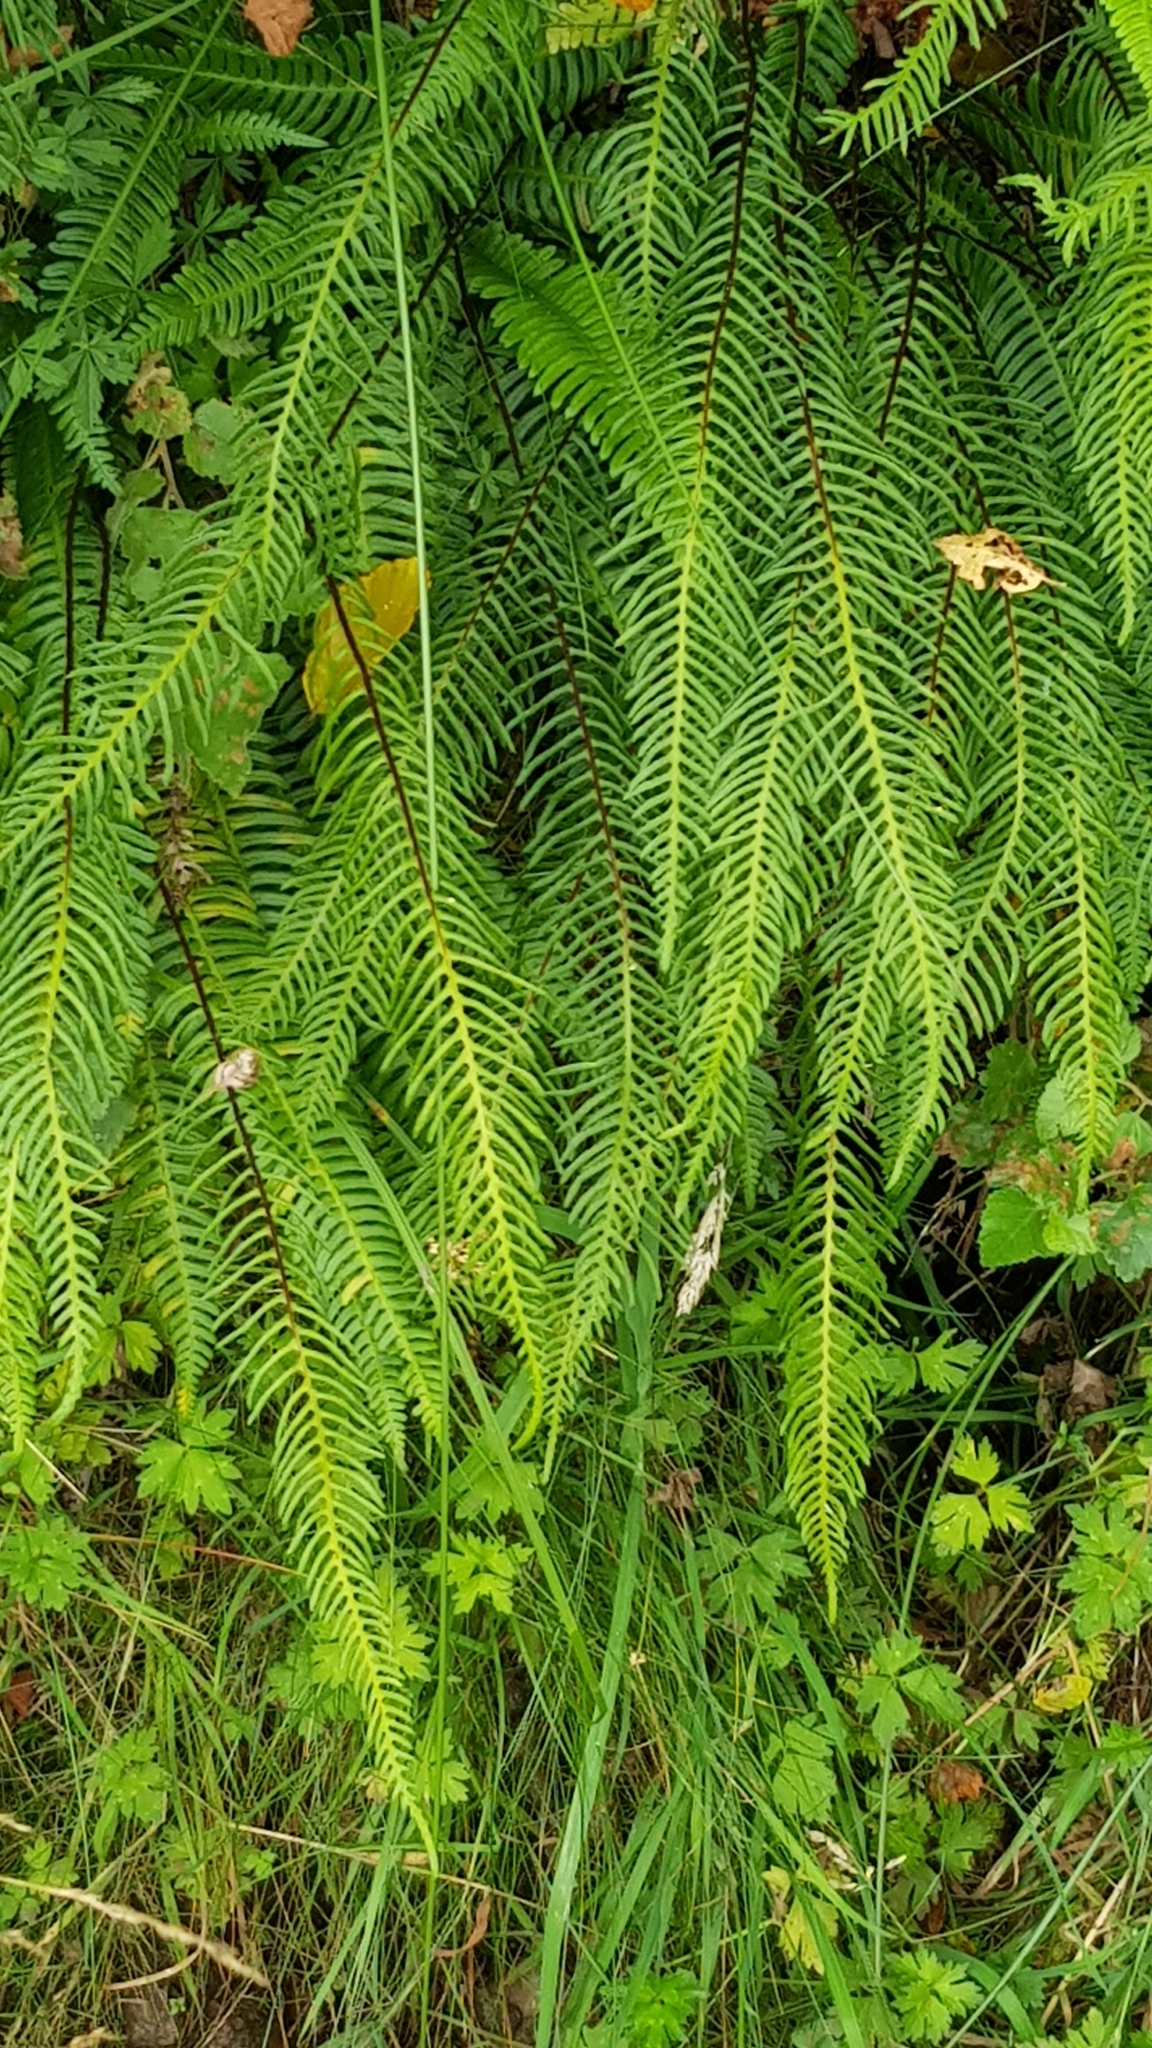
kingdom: Plantae
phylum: Tracheophyta
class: Polypodiopsida
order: Polypodiales
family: Blechnaceae
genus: Struthiopteris
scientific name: Struthiopteris spicant
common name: Deer fern
